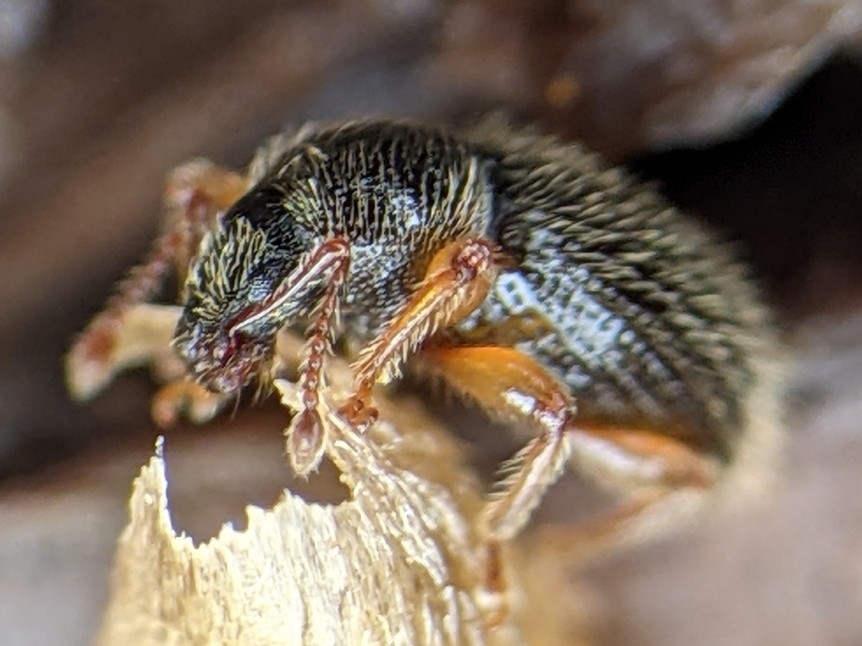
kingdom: Animalia
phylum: Arthropoda
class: Insecta
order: Coleoptera
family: Curculionidae
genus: Exomias
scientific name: Exomias pellucidus
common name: Hairy spider weevil
